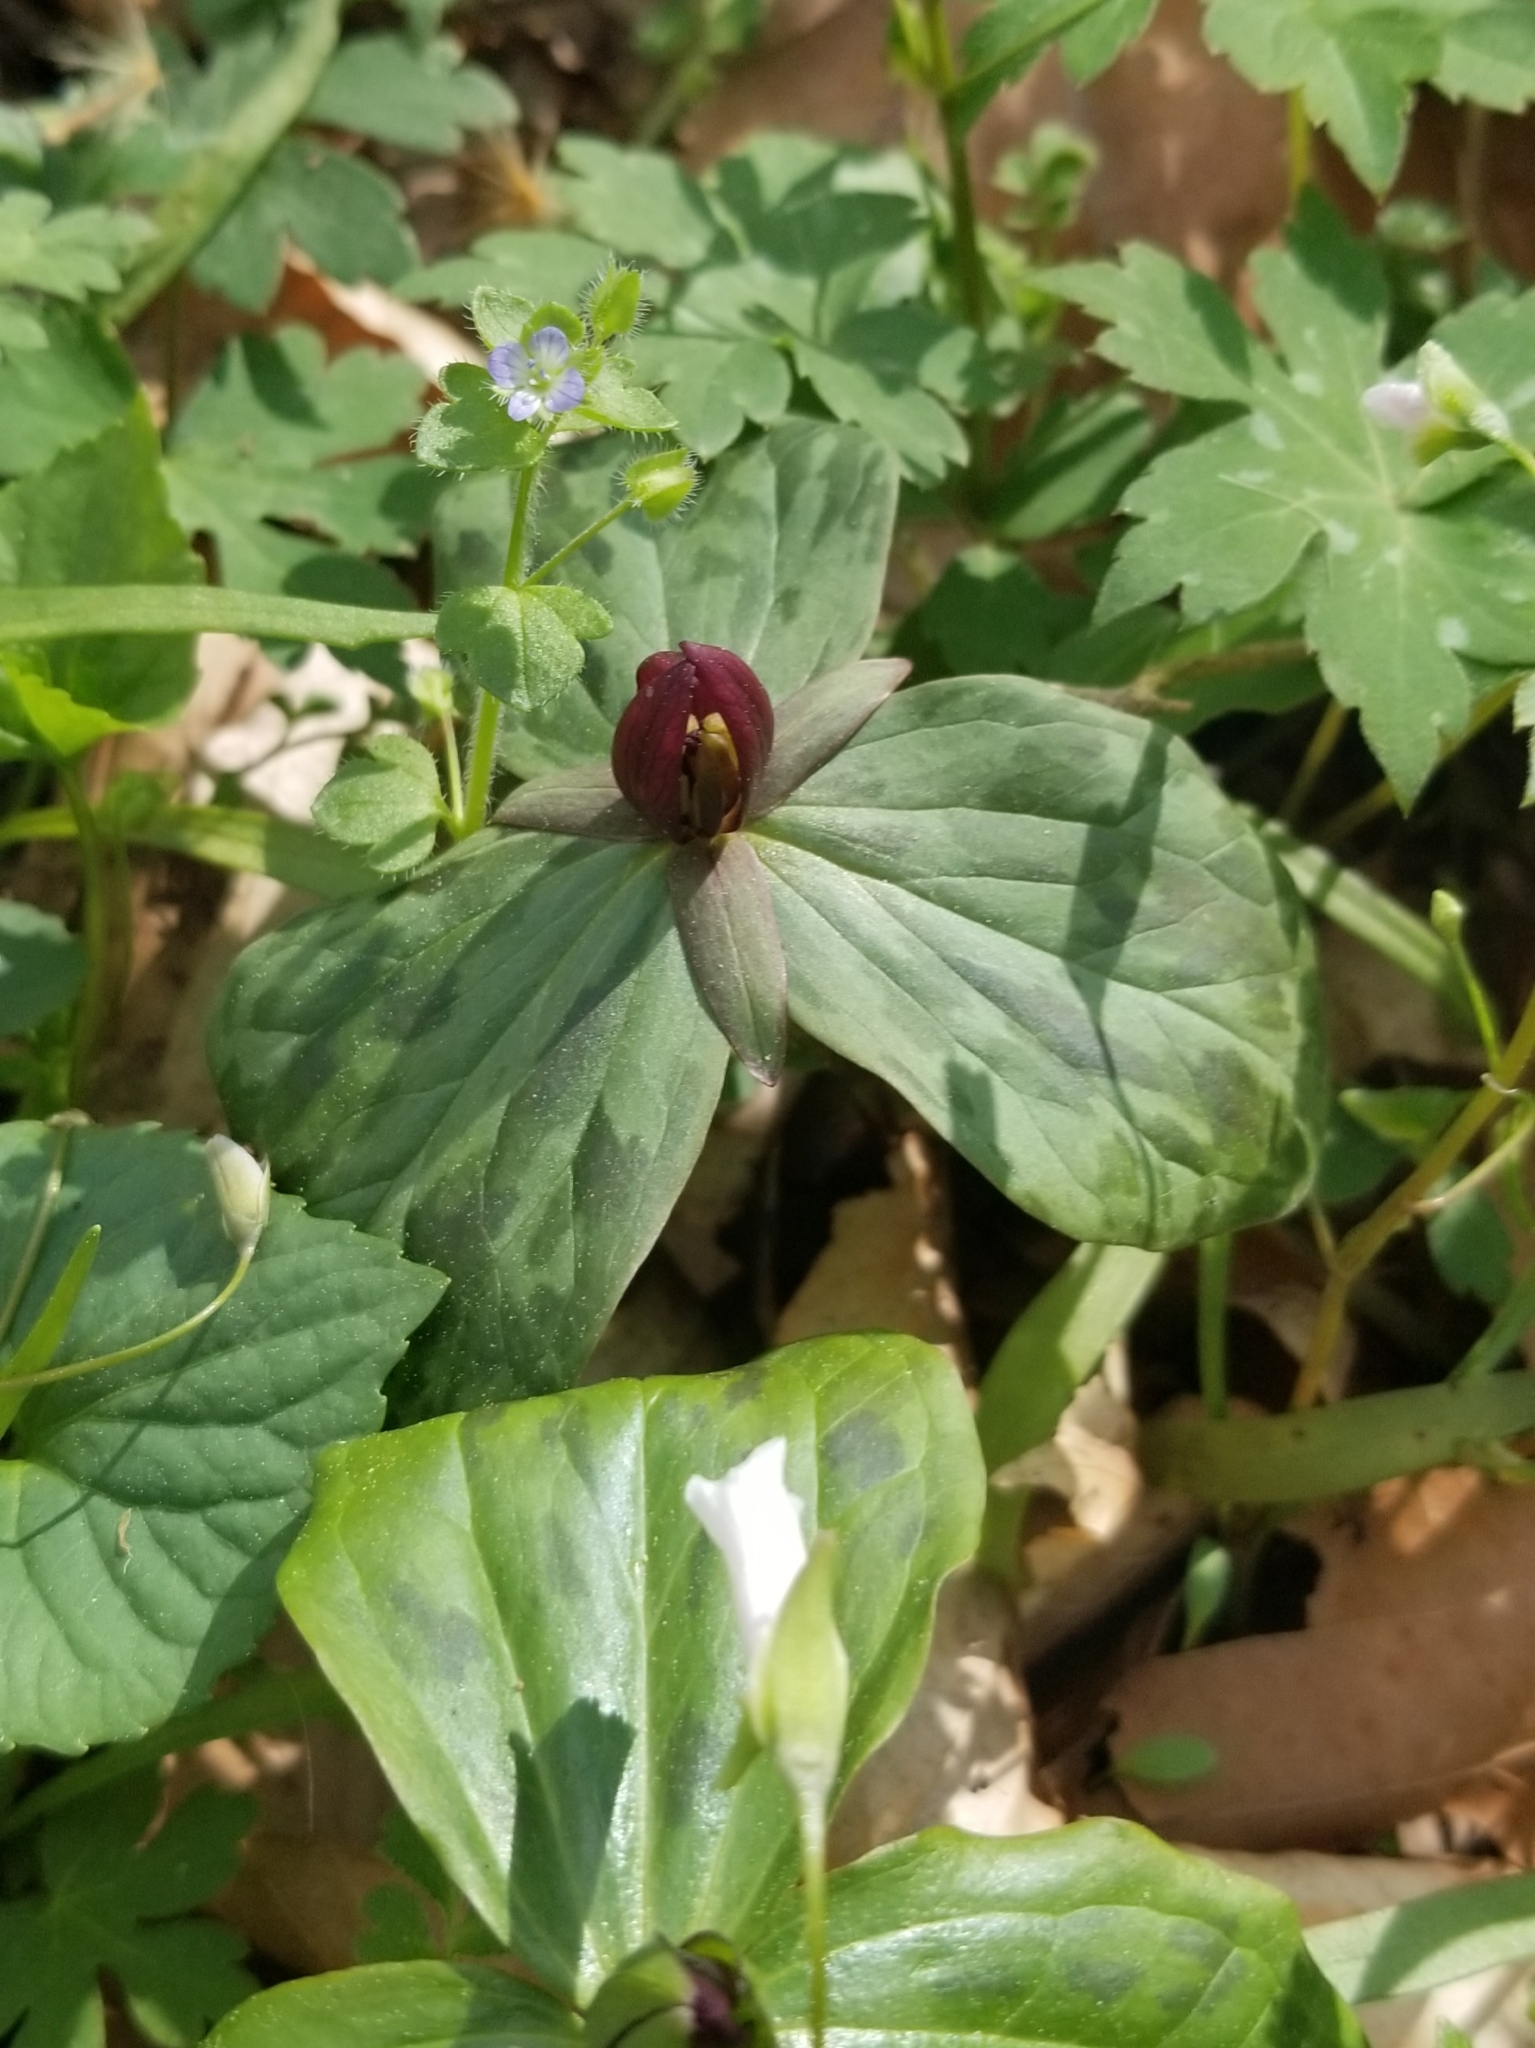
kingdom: Plantae
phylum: Tracheophyta
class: Liliopsida
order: Liliales
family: Melanthiaceae
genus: Trillium
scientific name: Trillium sessile
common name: Sessile trillium
